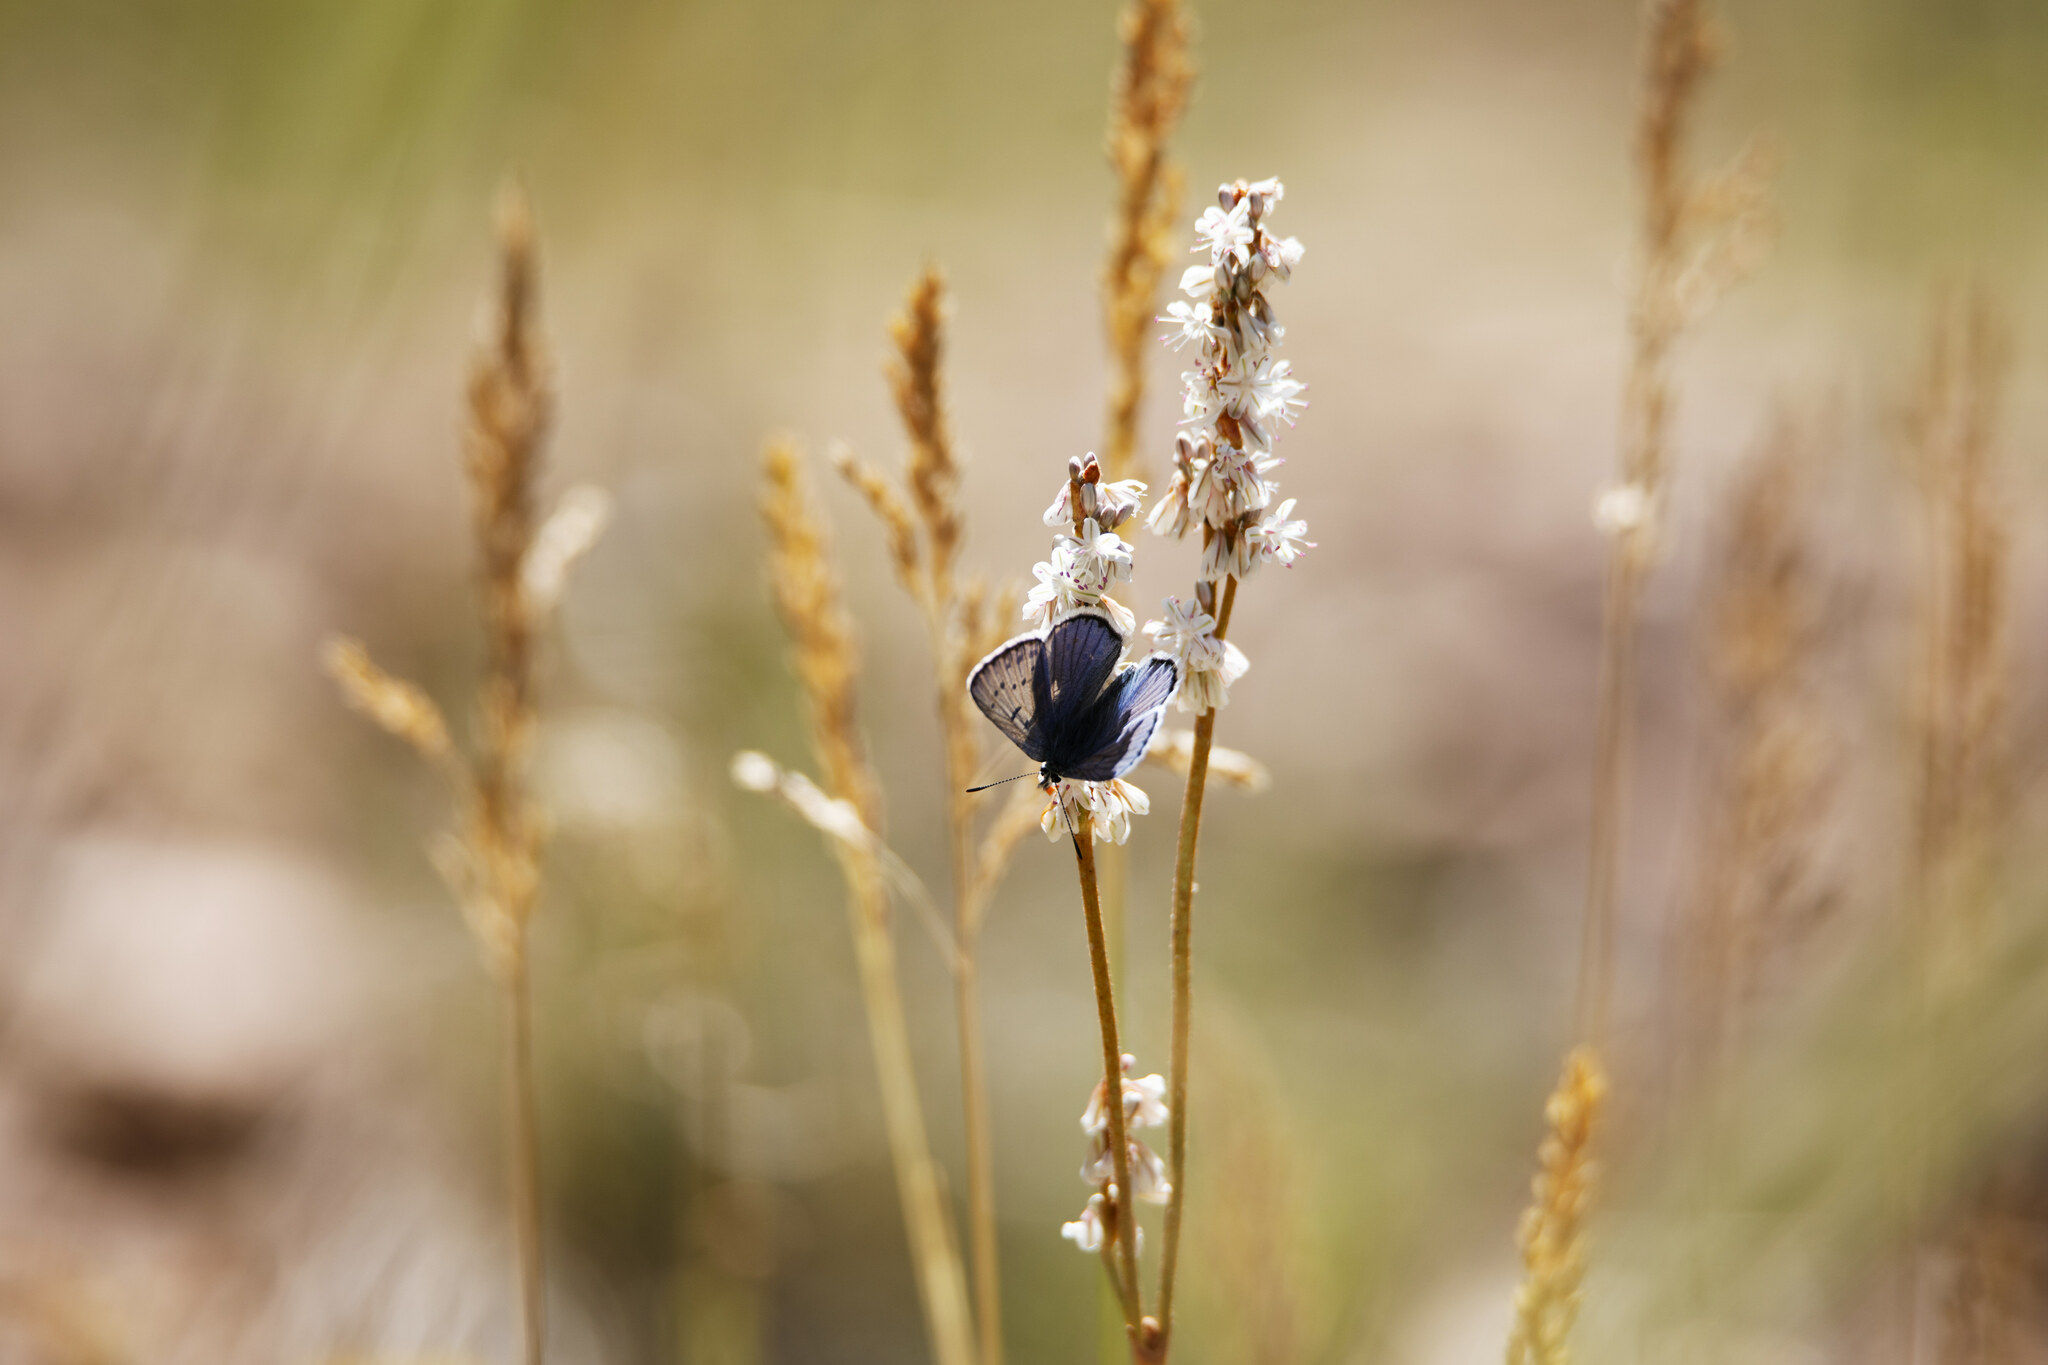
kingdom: Animalia
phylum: Arthropoda
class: Insecta
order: Lepidoptera
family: Lycaenidae
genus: Tharsalea
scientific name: Tharsalea heteronea
